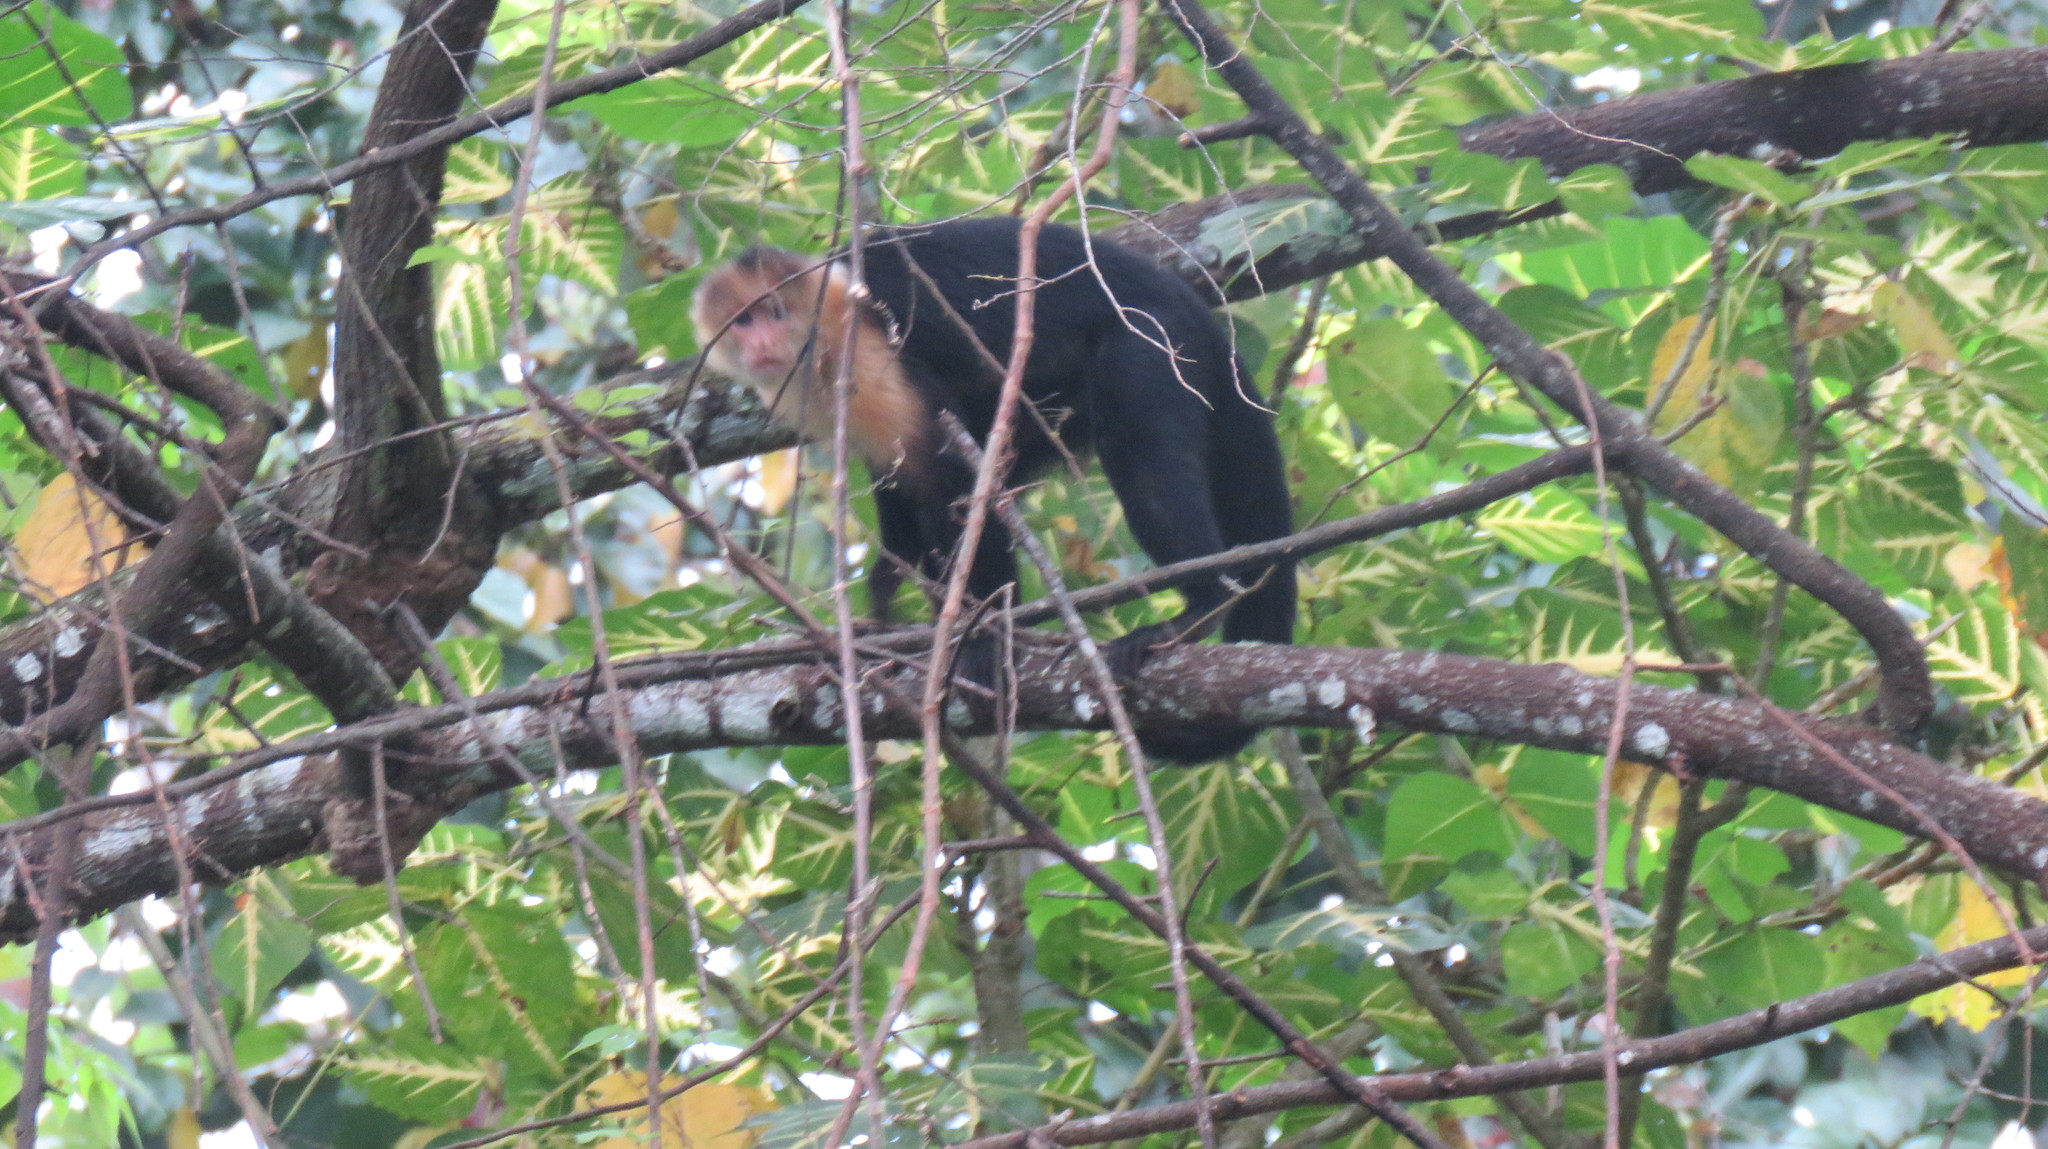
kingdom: Animalia
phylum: Chordata
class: Mammalia
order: Primates
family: Cebidae
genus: Cebus
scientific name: Cebus capucinus
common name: White-headed capuchin
